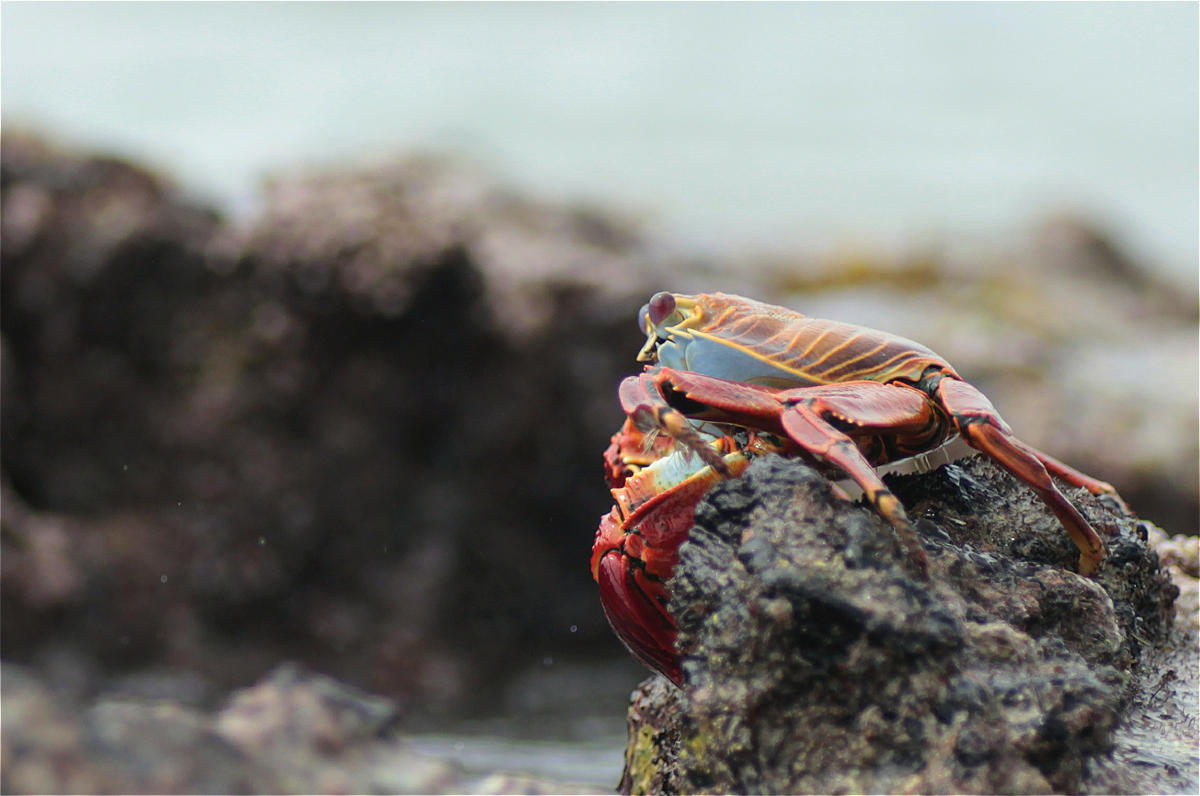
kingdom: Animalia
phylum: Arthropoda
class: Malacostraca
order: Decapoda
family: Grapsidae
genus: Grapsus
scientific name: Grapsus grapsus
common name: Sally lightfoot
